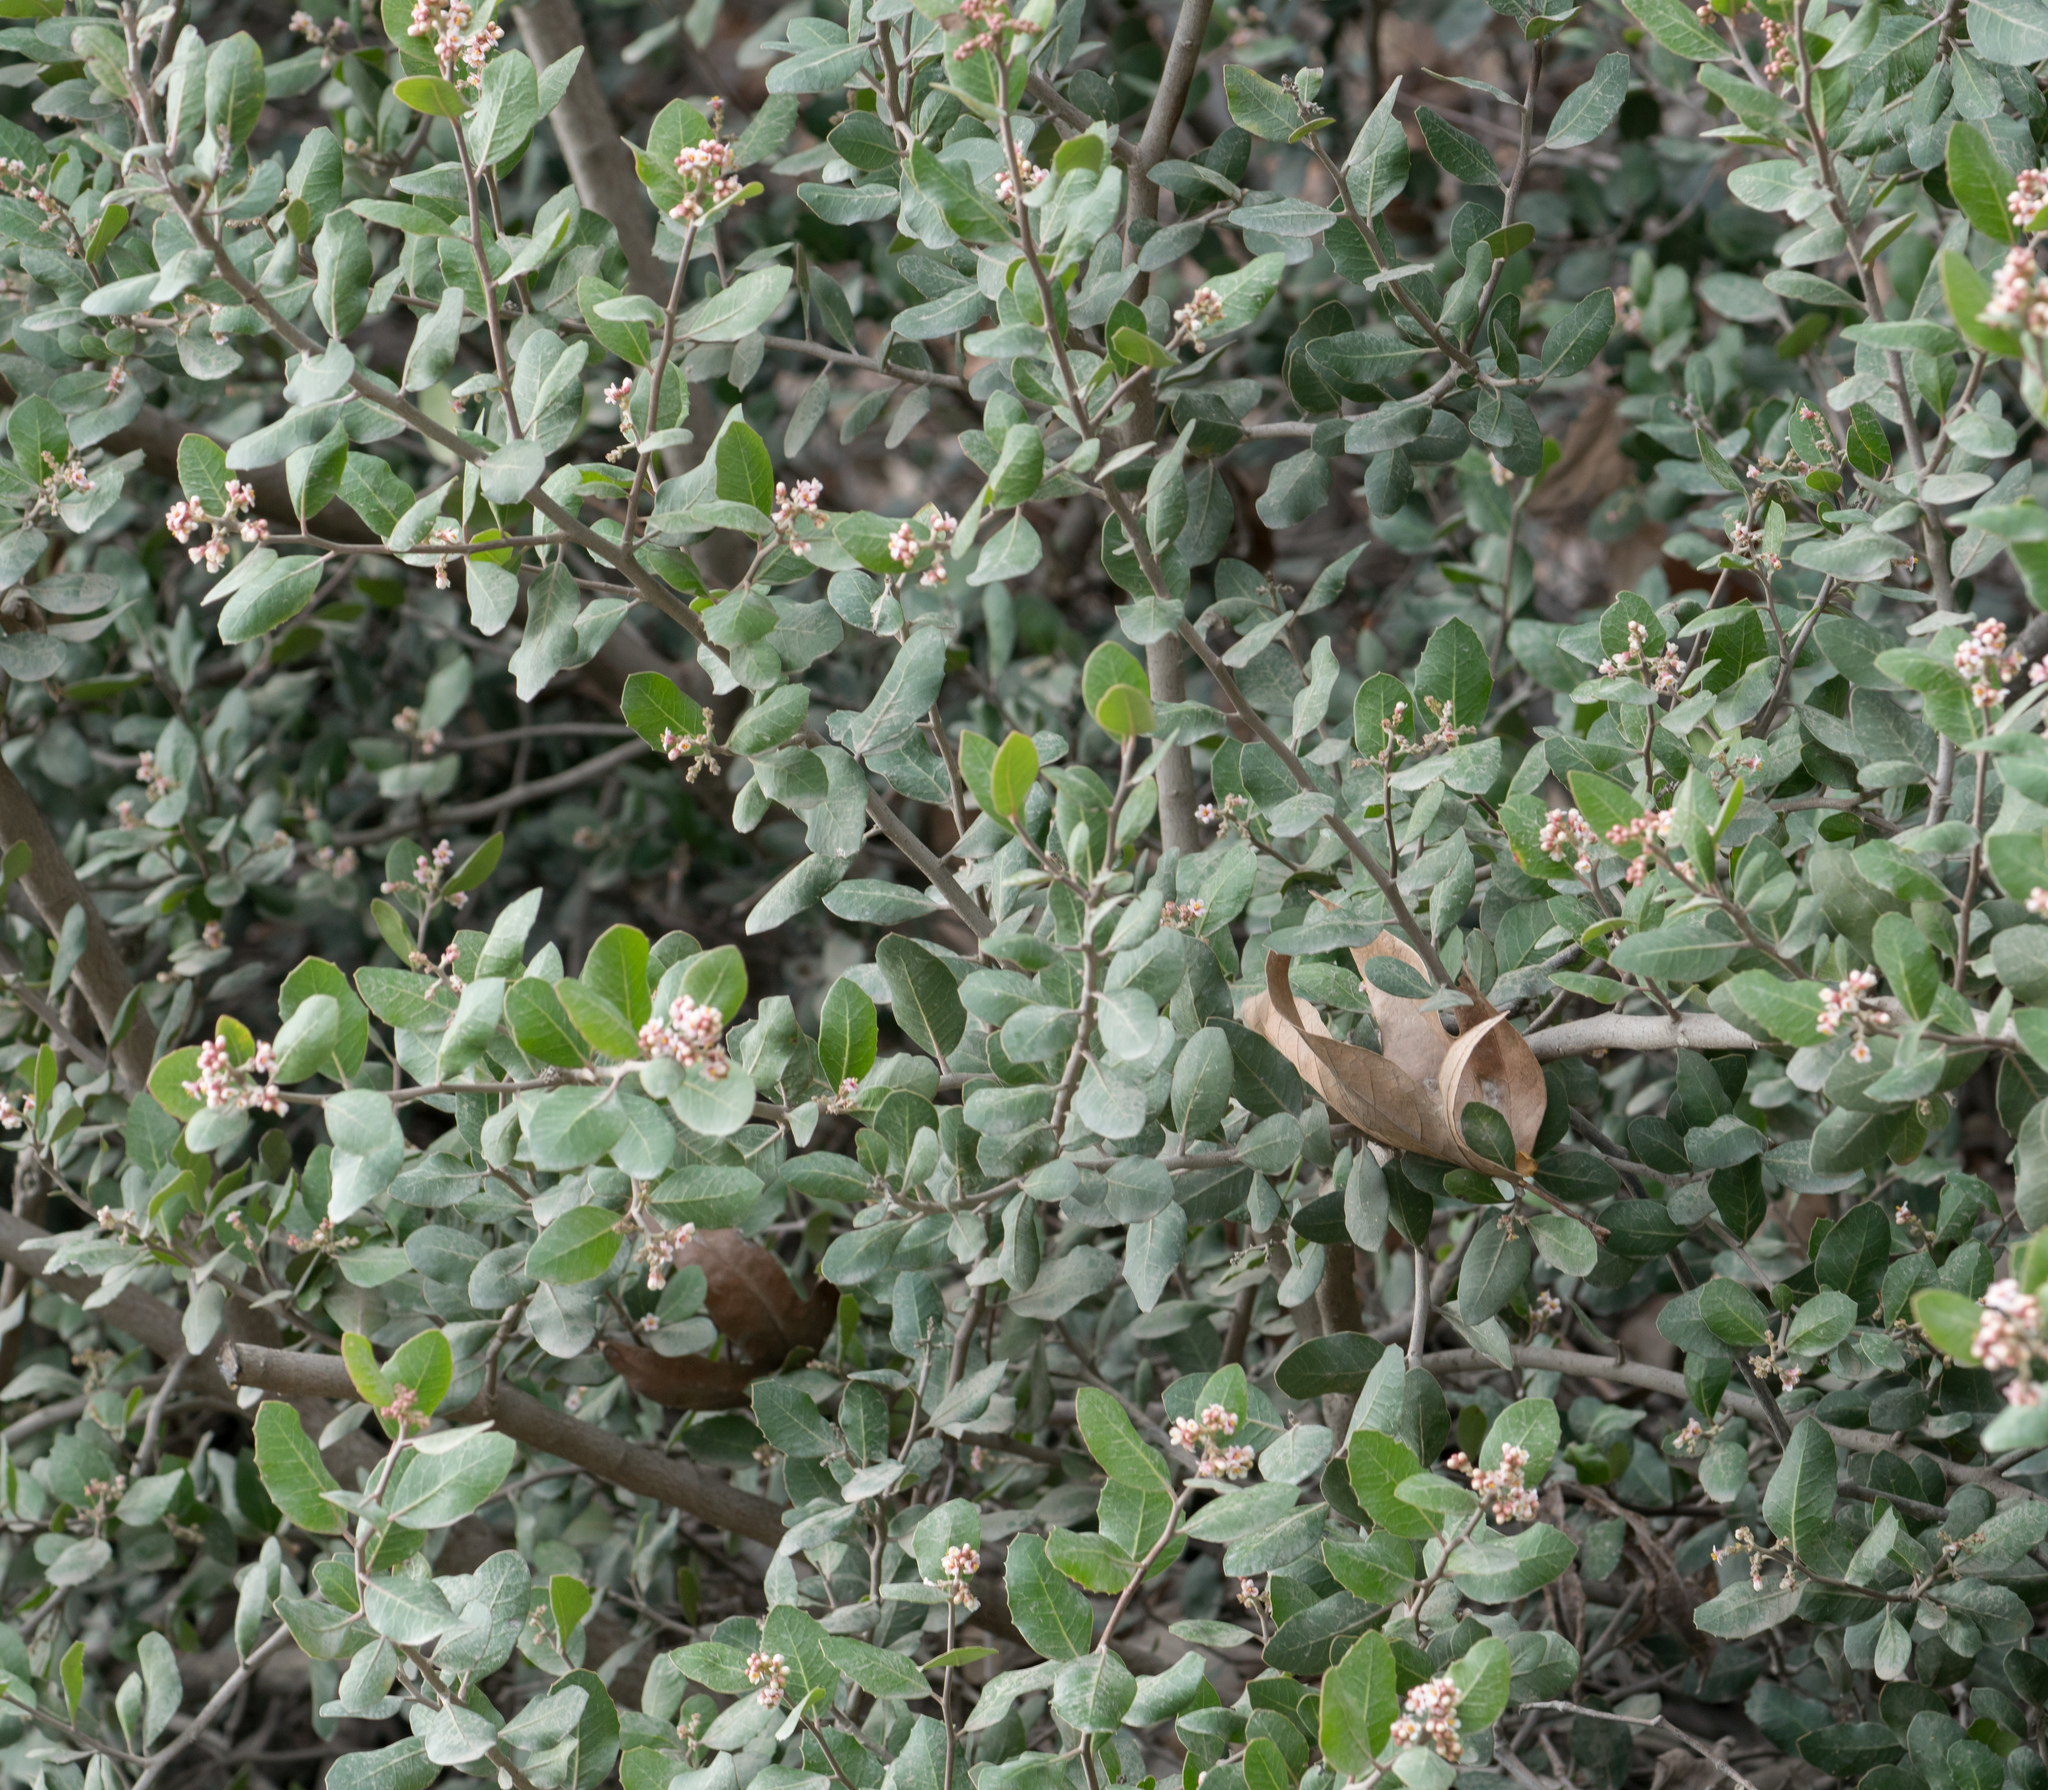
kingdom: Plantae
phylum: Tracheophyta
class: Magnoliopsida
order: Sapindales
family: Anacardiaceae
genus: Rhus
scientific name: Rhus integrifolia
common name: Lemonade sumac
